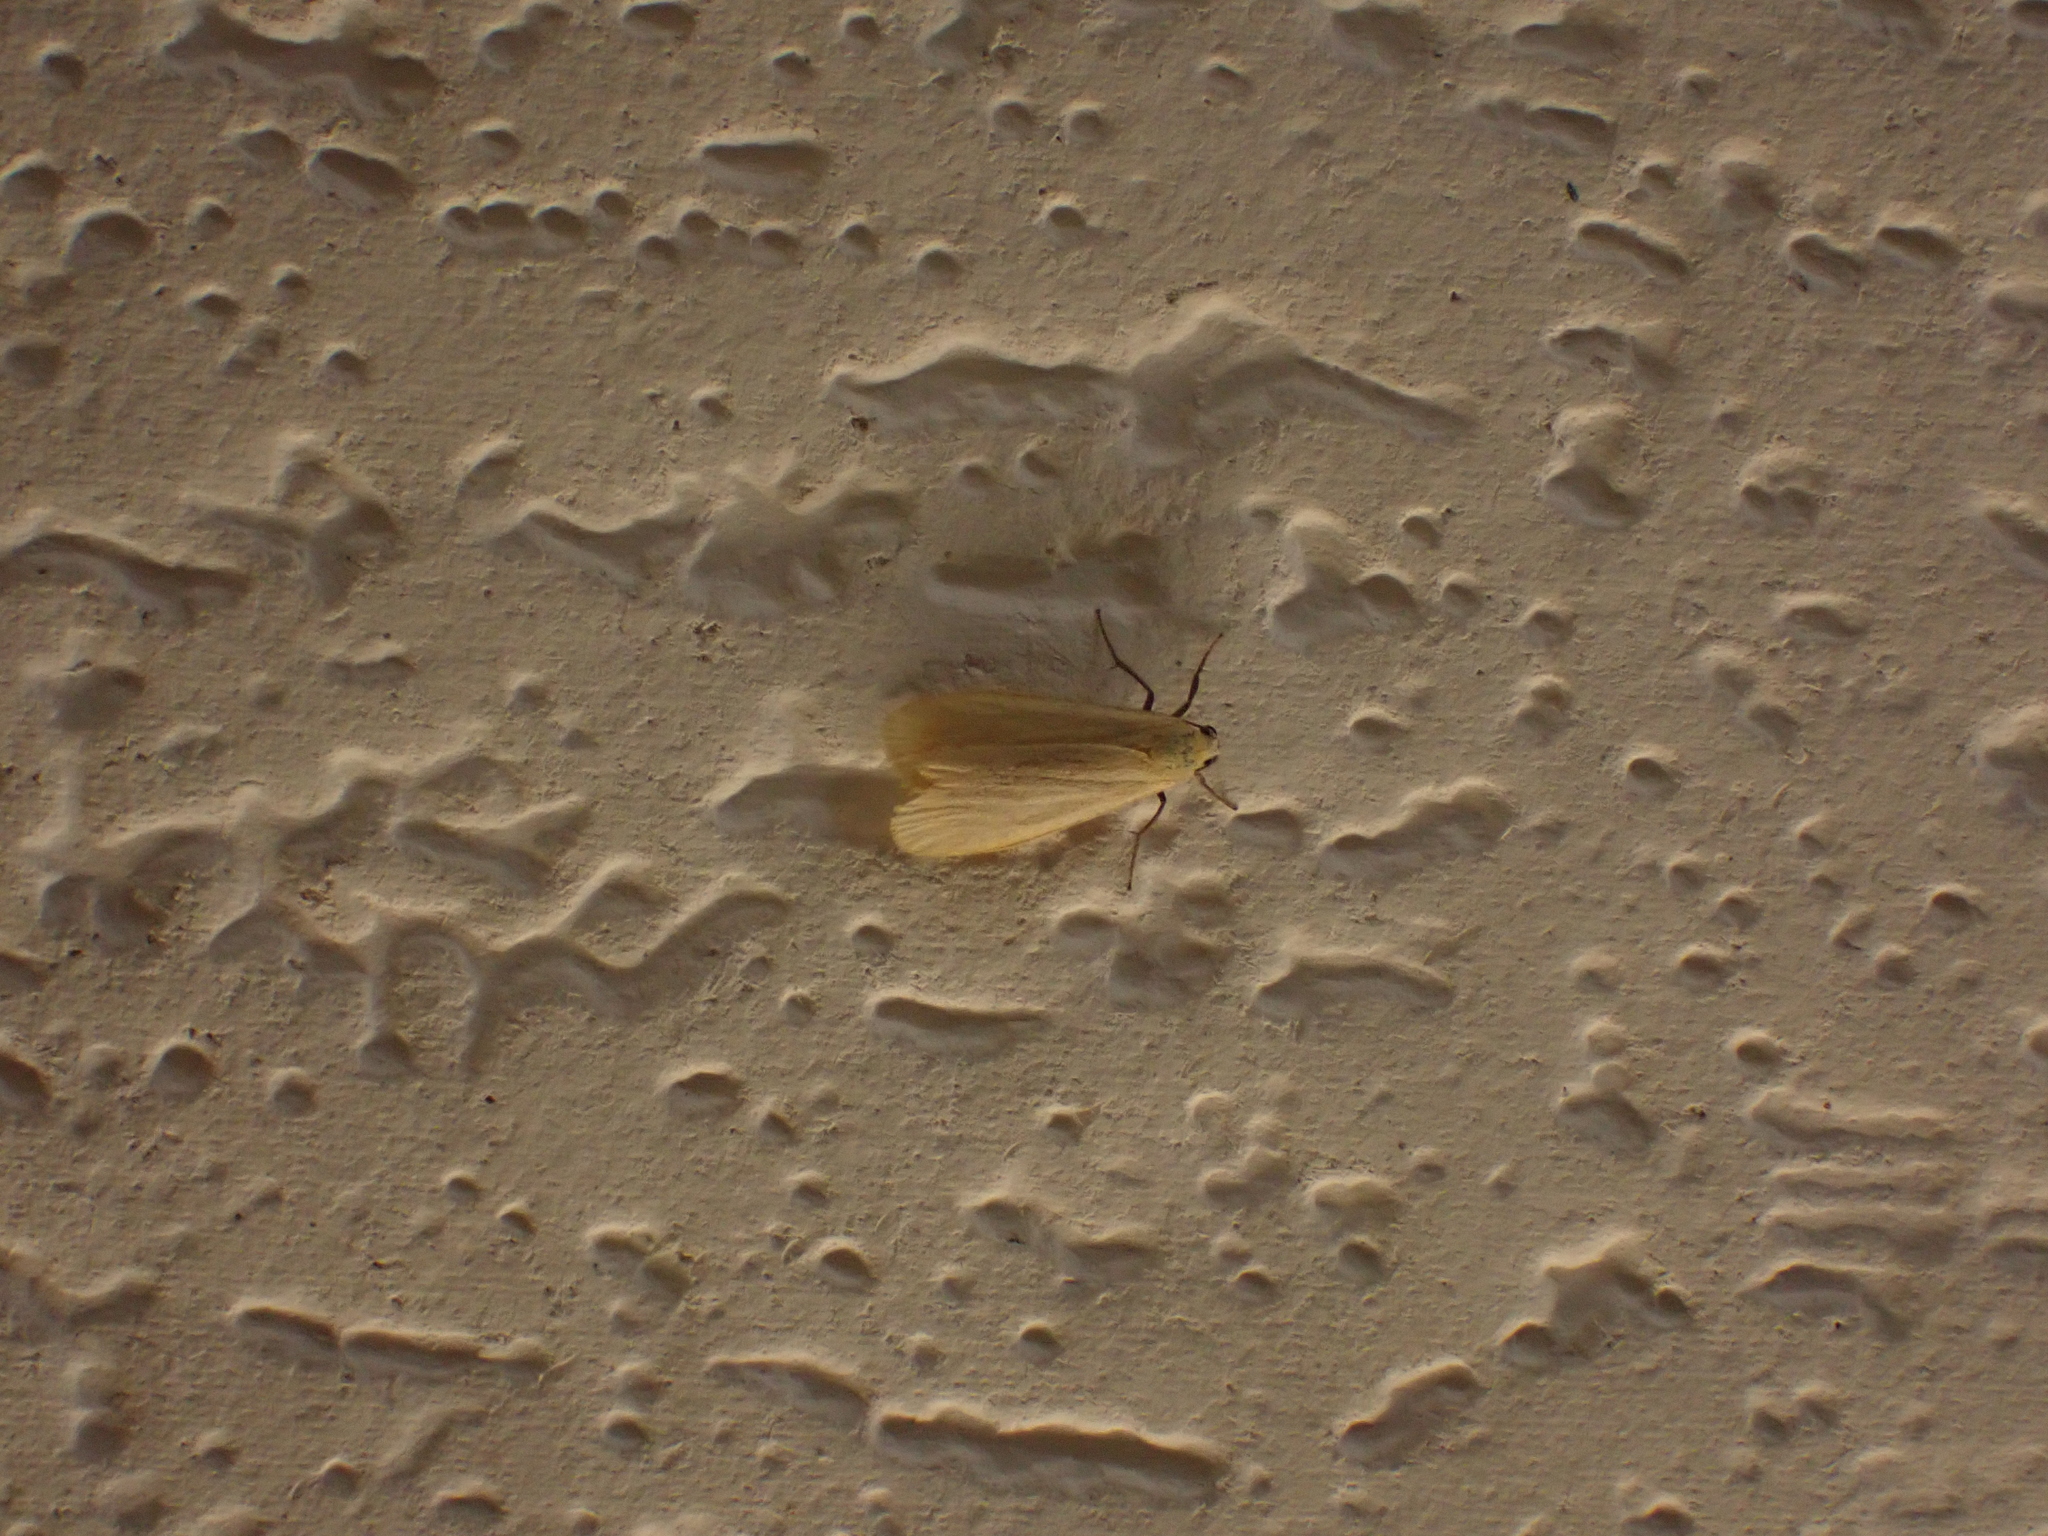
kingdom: Animalia
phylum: Arthropoda
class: Insecta
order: Lepidoptera
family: Erebidae
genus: Wittia
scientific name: Wittia sororcula
